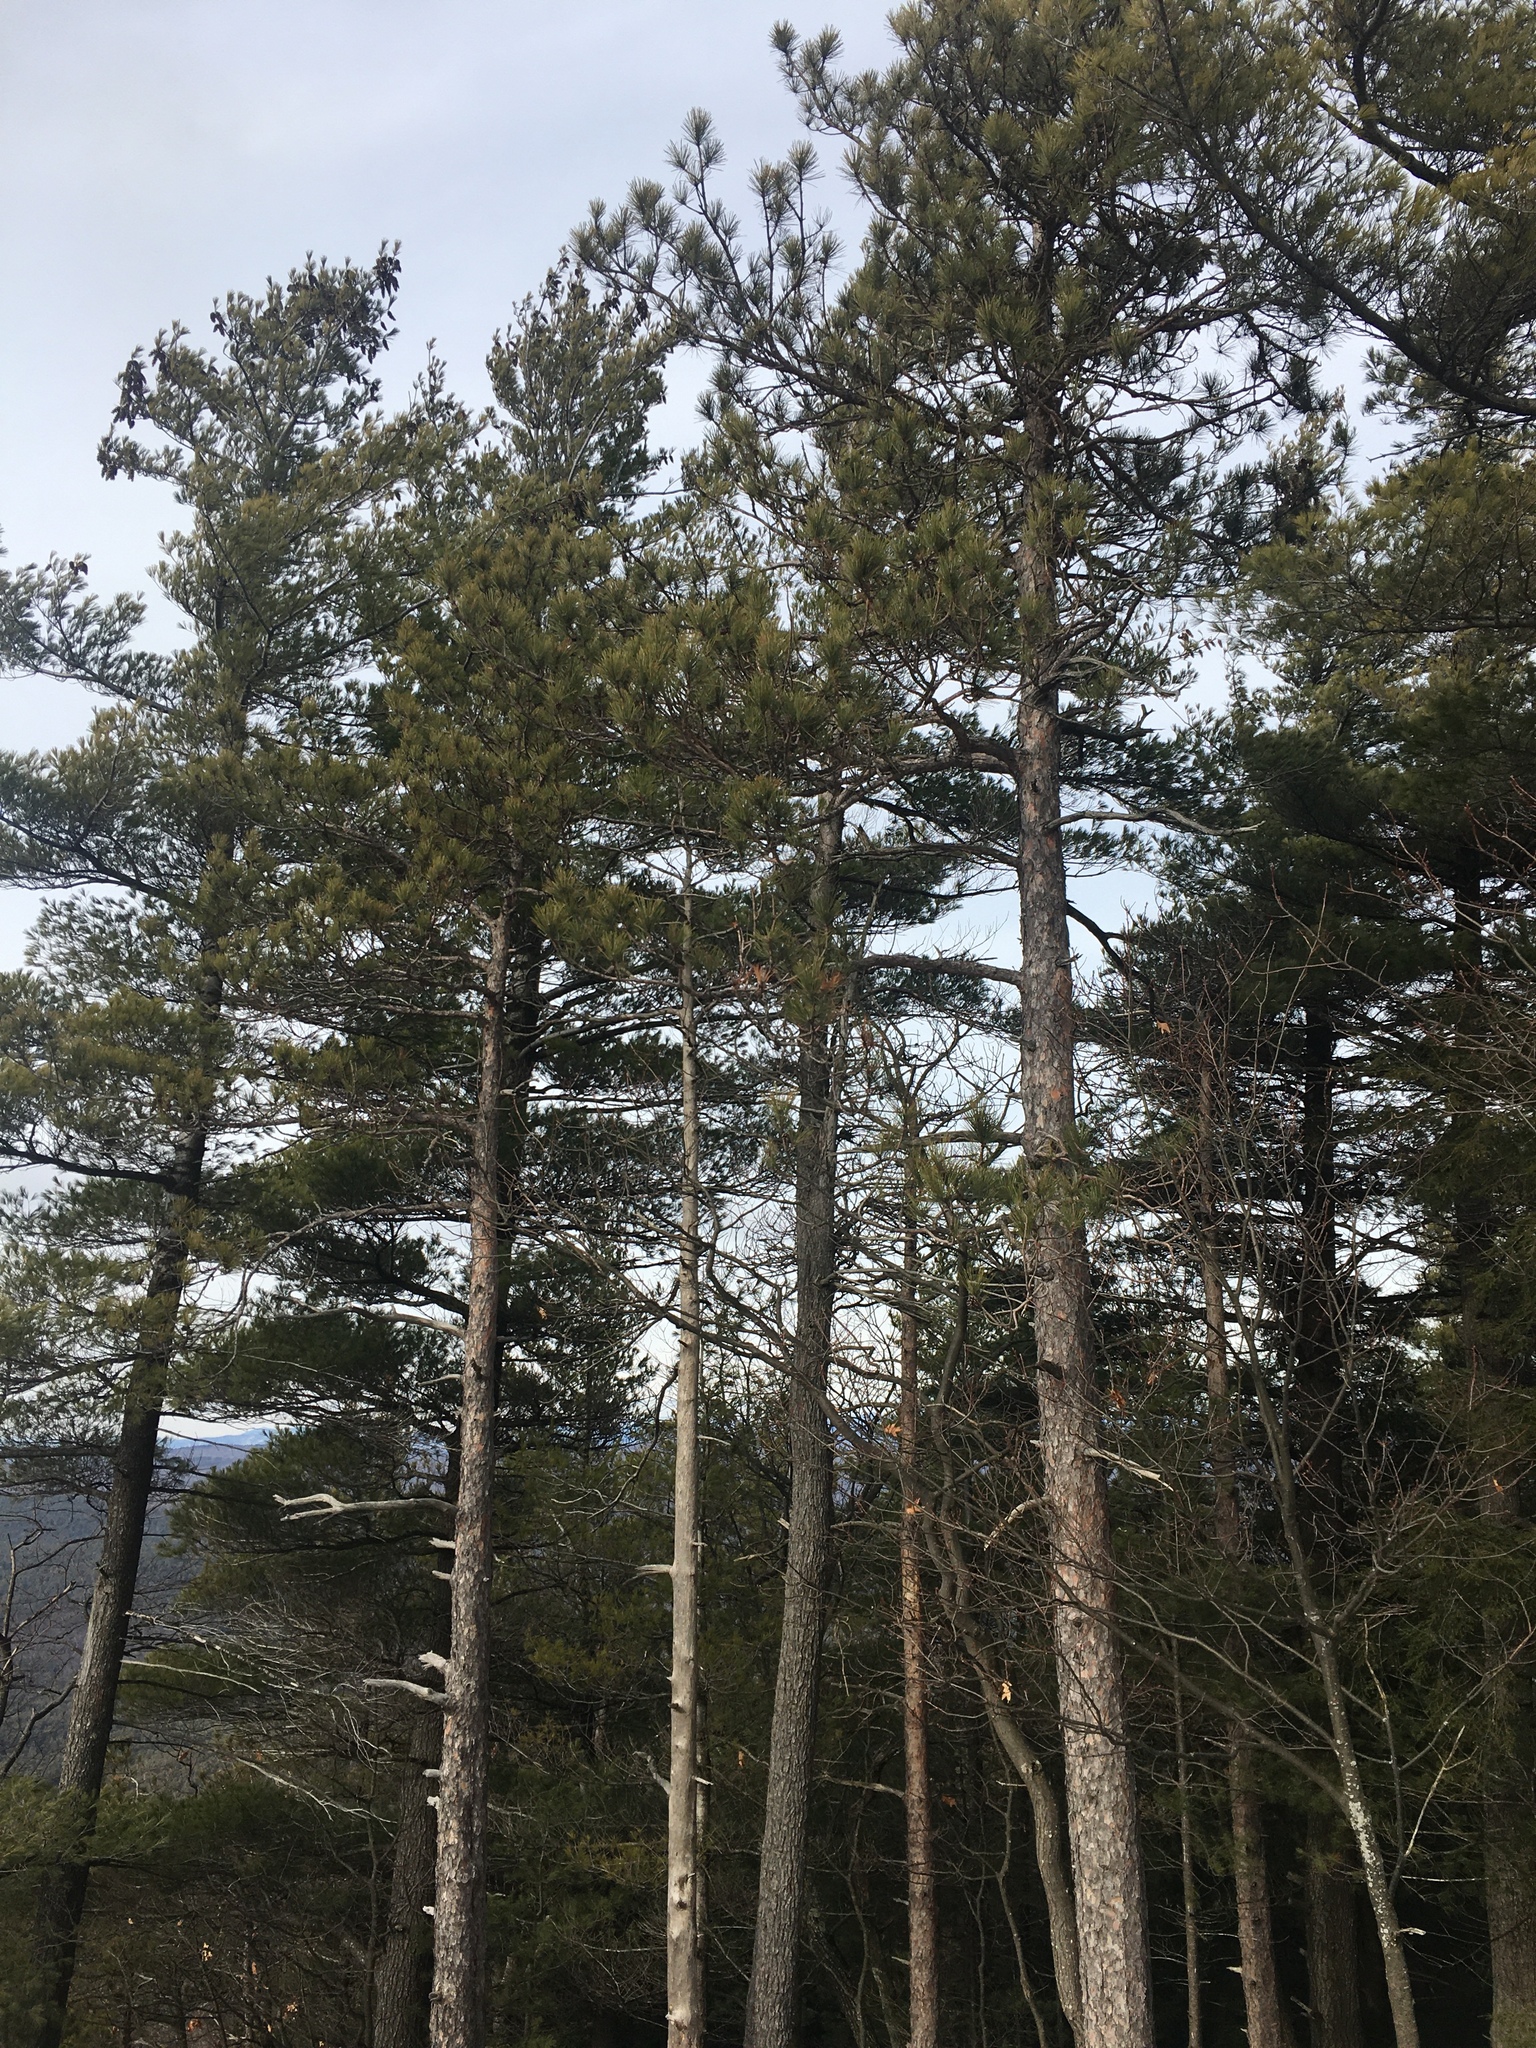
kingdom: Plantae
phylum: Tracheophyta
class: Pinopsida
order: Pinales
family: Pinaceae
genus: Pinus
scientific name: Pinus resinosa
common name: Norway pine
